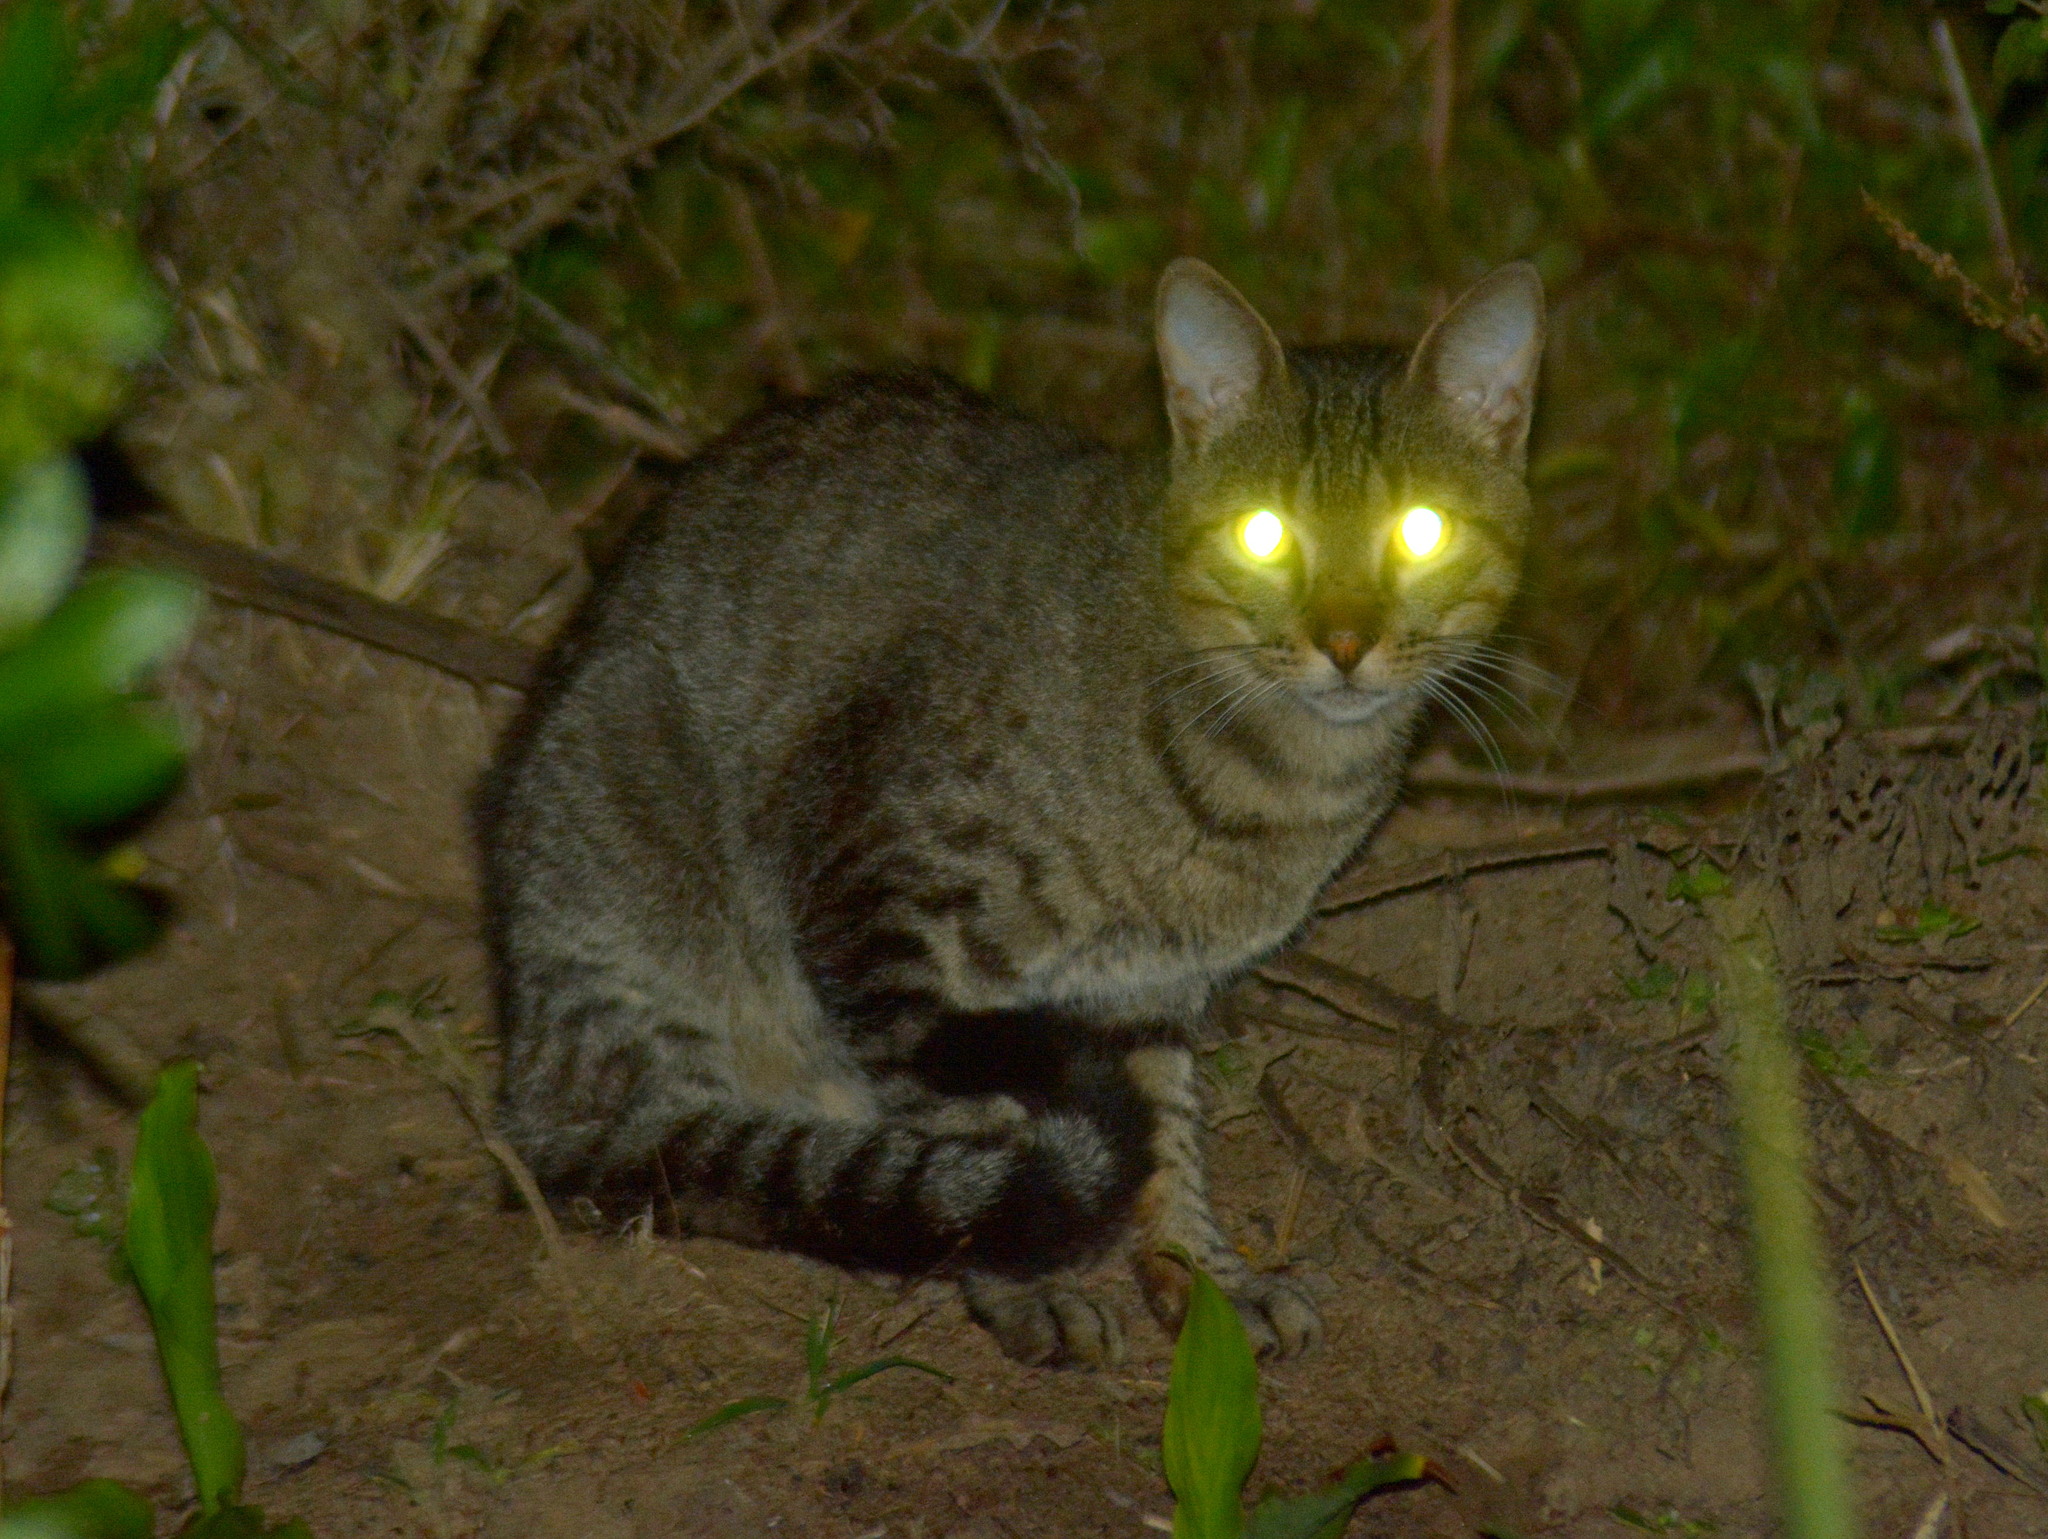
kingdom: Animalia
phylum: Chordata
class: Mammalia
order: Carnivora
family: Felidae
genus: Felis
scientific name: Felis catus
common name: Domestic cat
